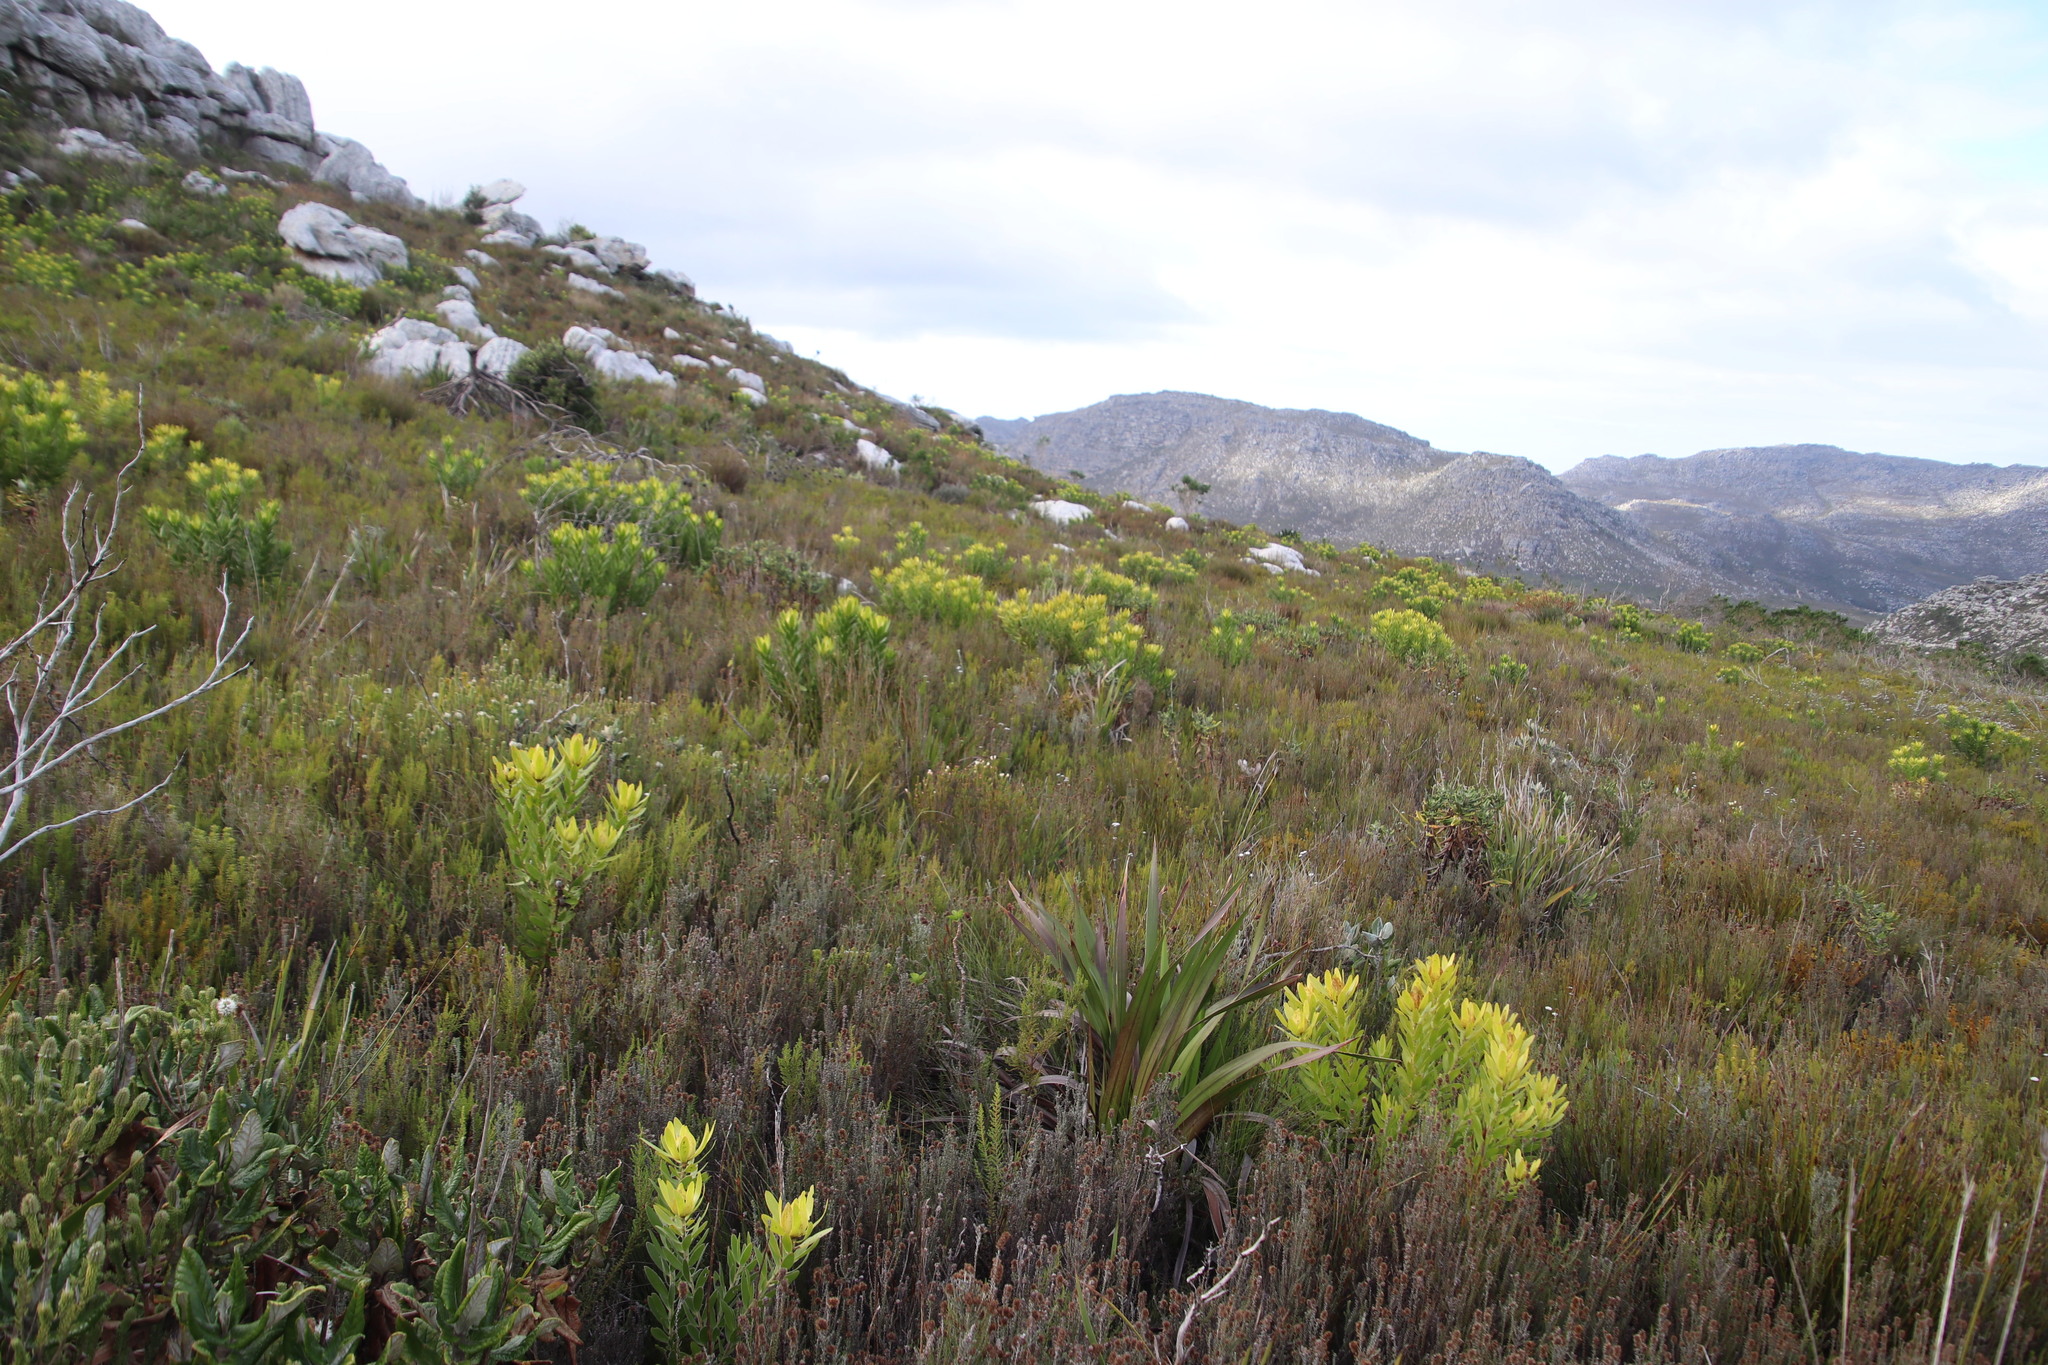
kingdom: Plantae
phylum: Tracheophyta
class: Magnoliopsida
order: Proteales
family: Proteaceae
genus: Leucadendron
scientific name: Leucadendron laureolum
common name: Golden sunshinebush
